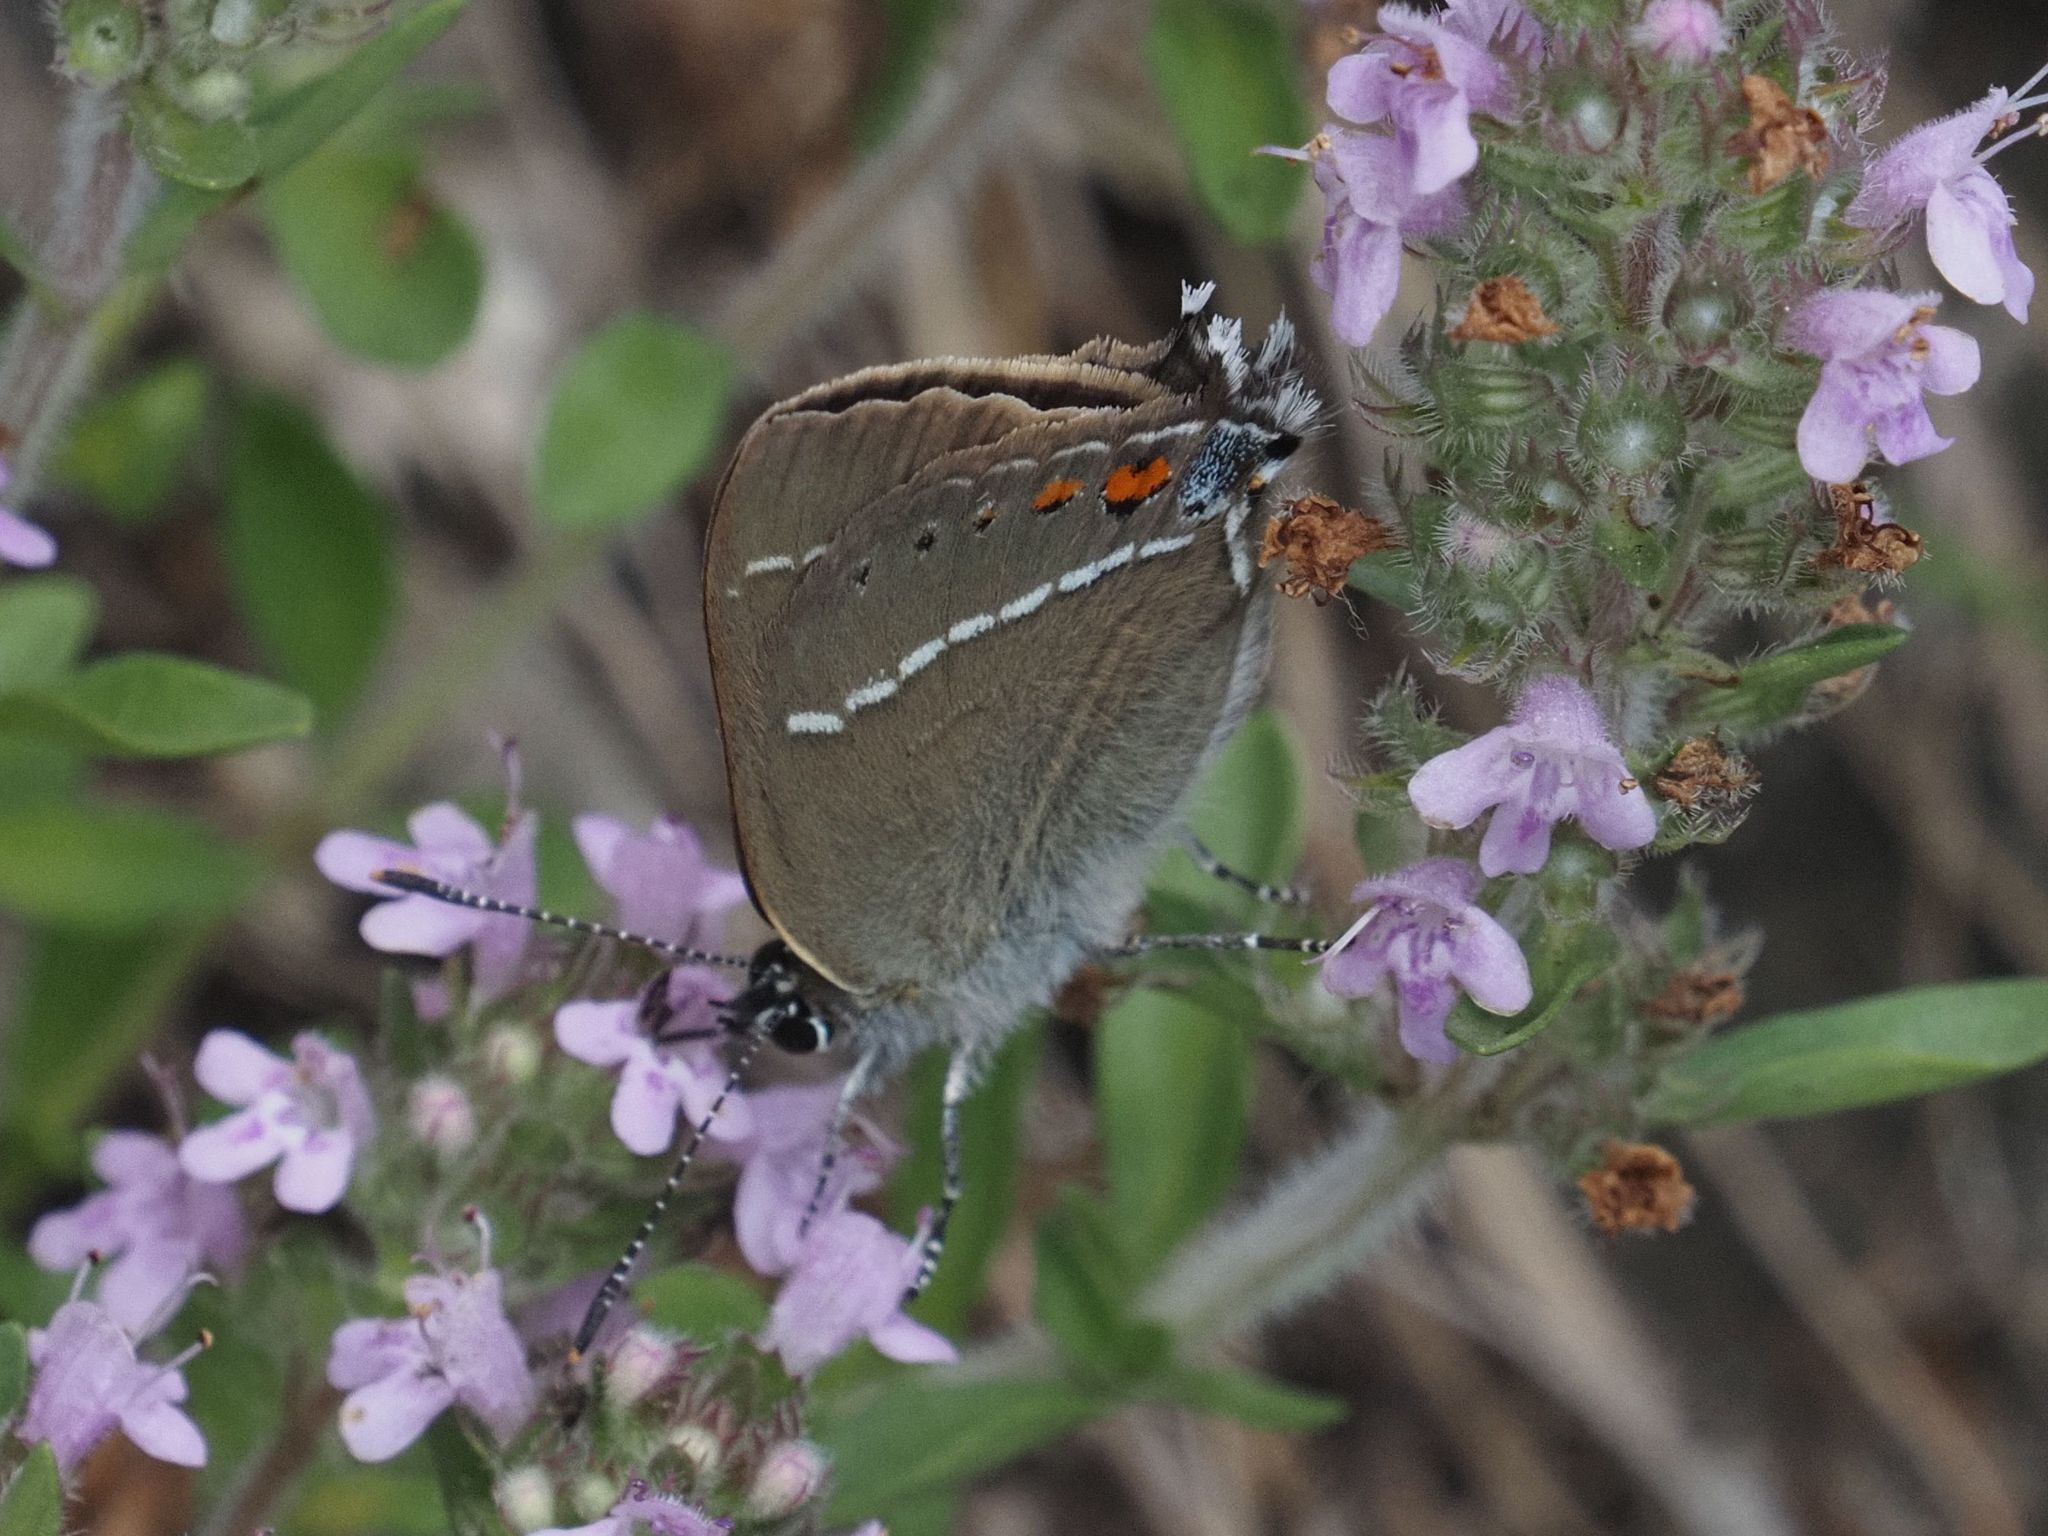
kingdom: Animalia
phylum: Arthropoda
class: Insecta
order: Lepidoptera
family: Lycaenidae
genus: Tuttiola
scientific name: Tuttiola spini
